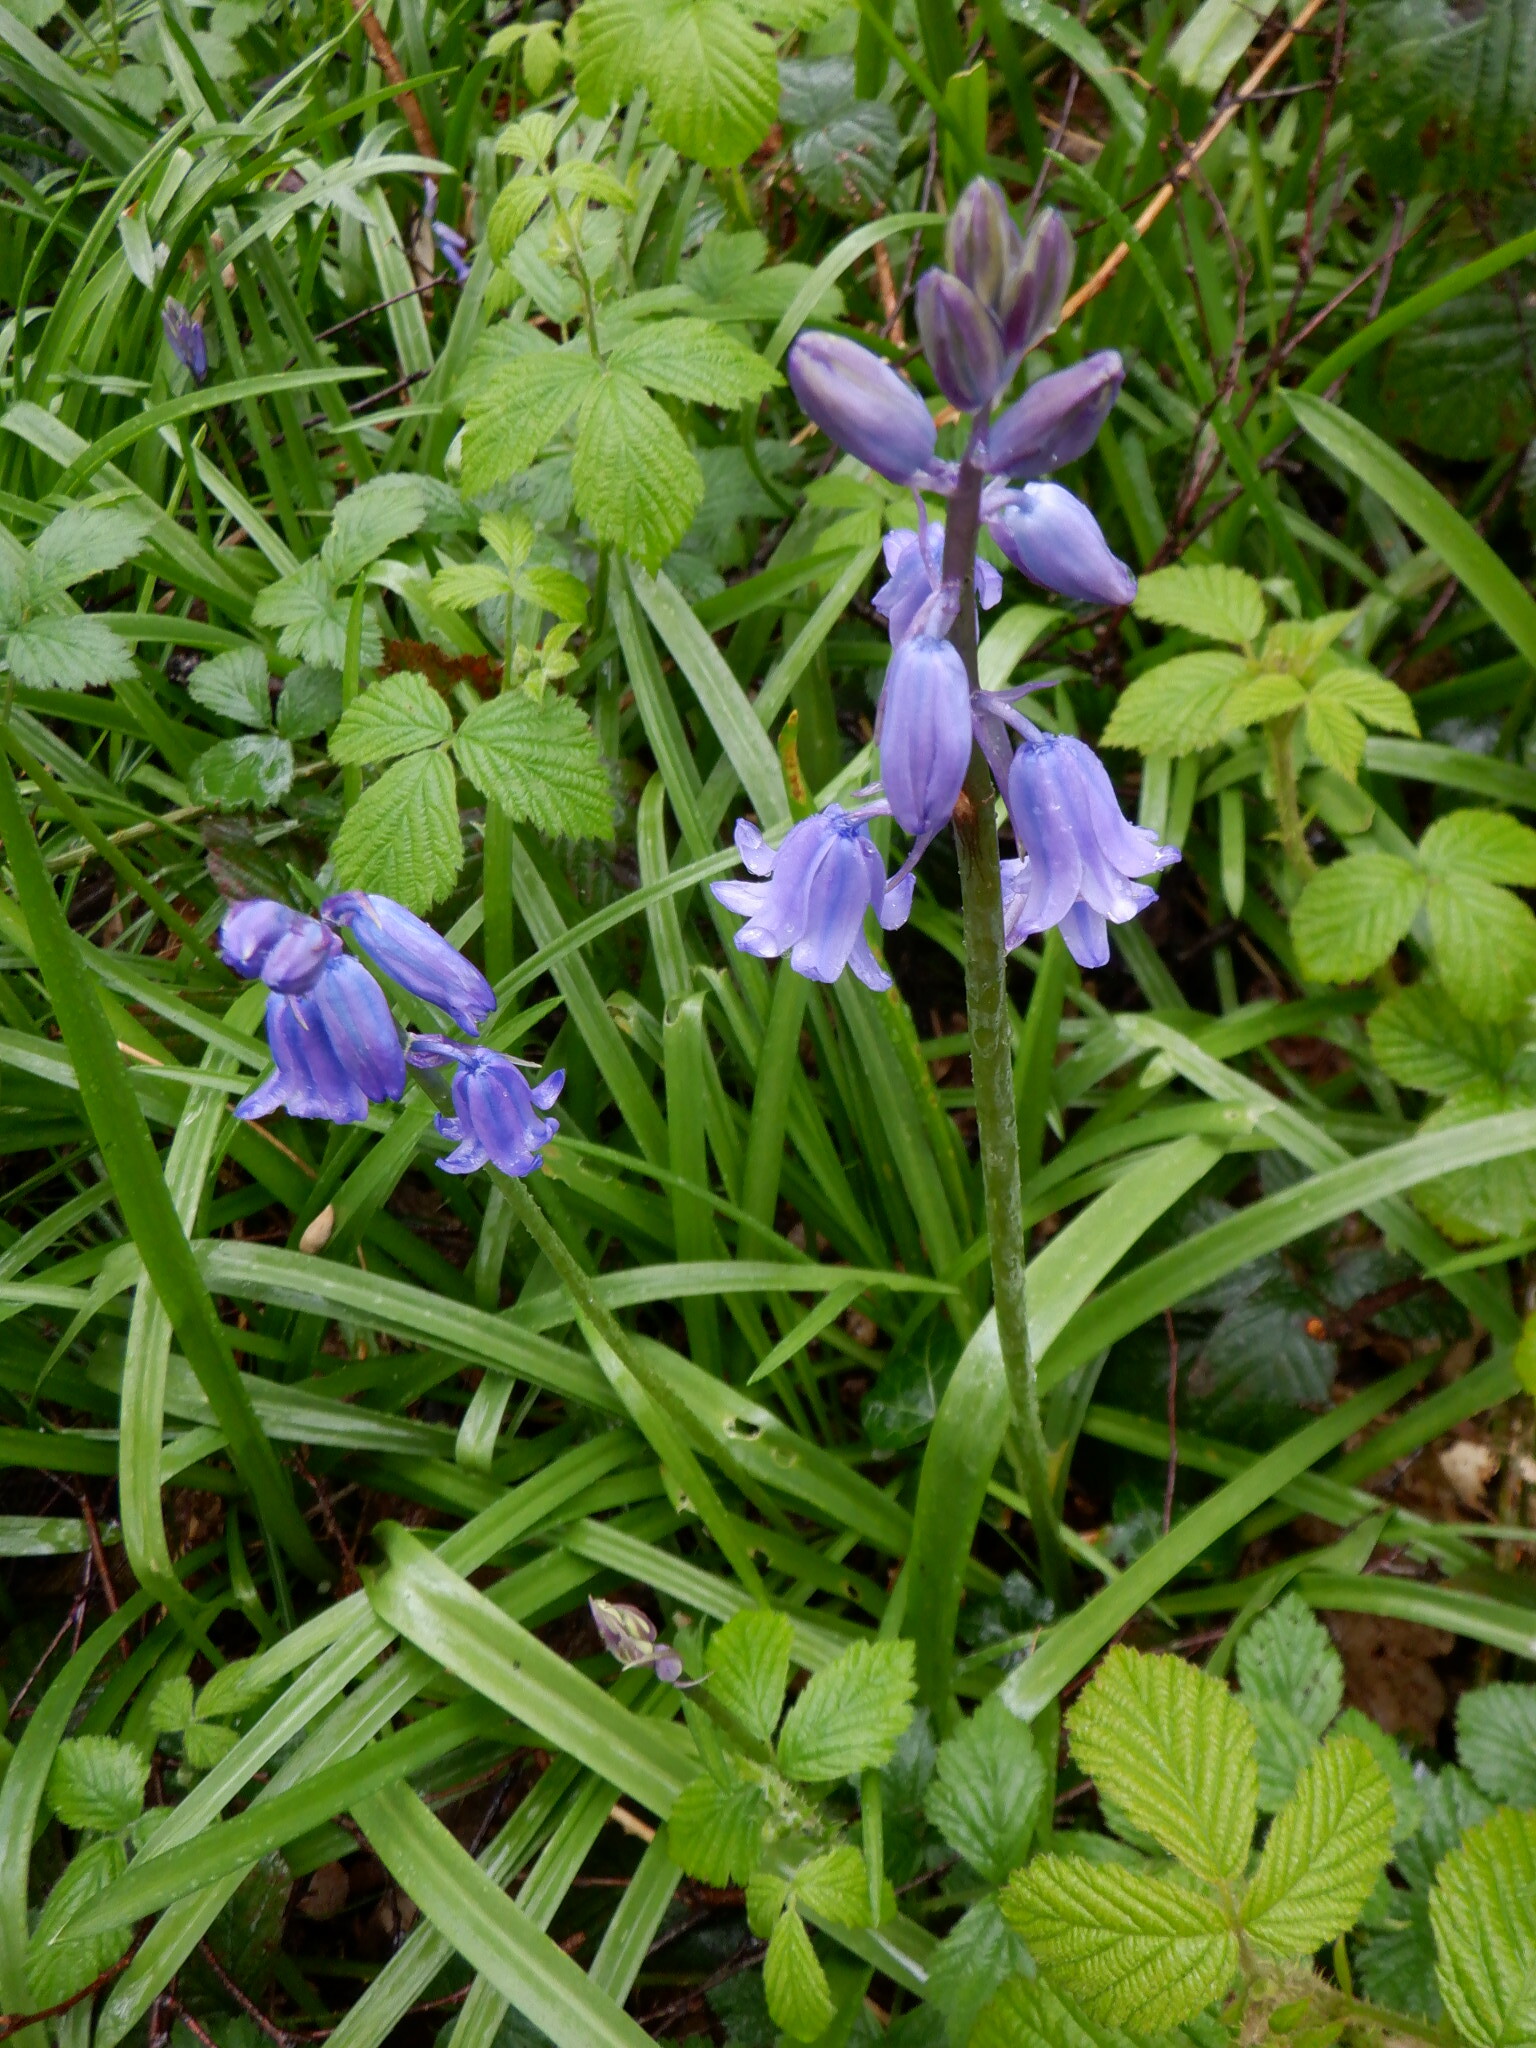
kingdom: Plantae
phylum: Tracheophyta
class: Liliopsida
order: Asparagales
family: Asparagaceae
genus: Hyacinthoides
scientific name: Hyacinthoides massartiana
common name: Hyacinthoides
